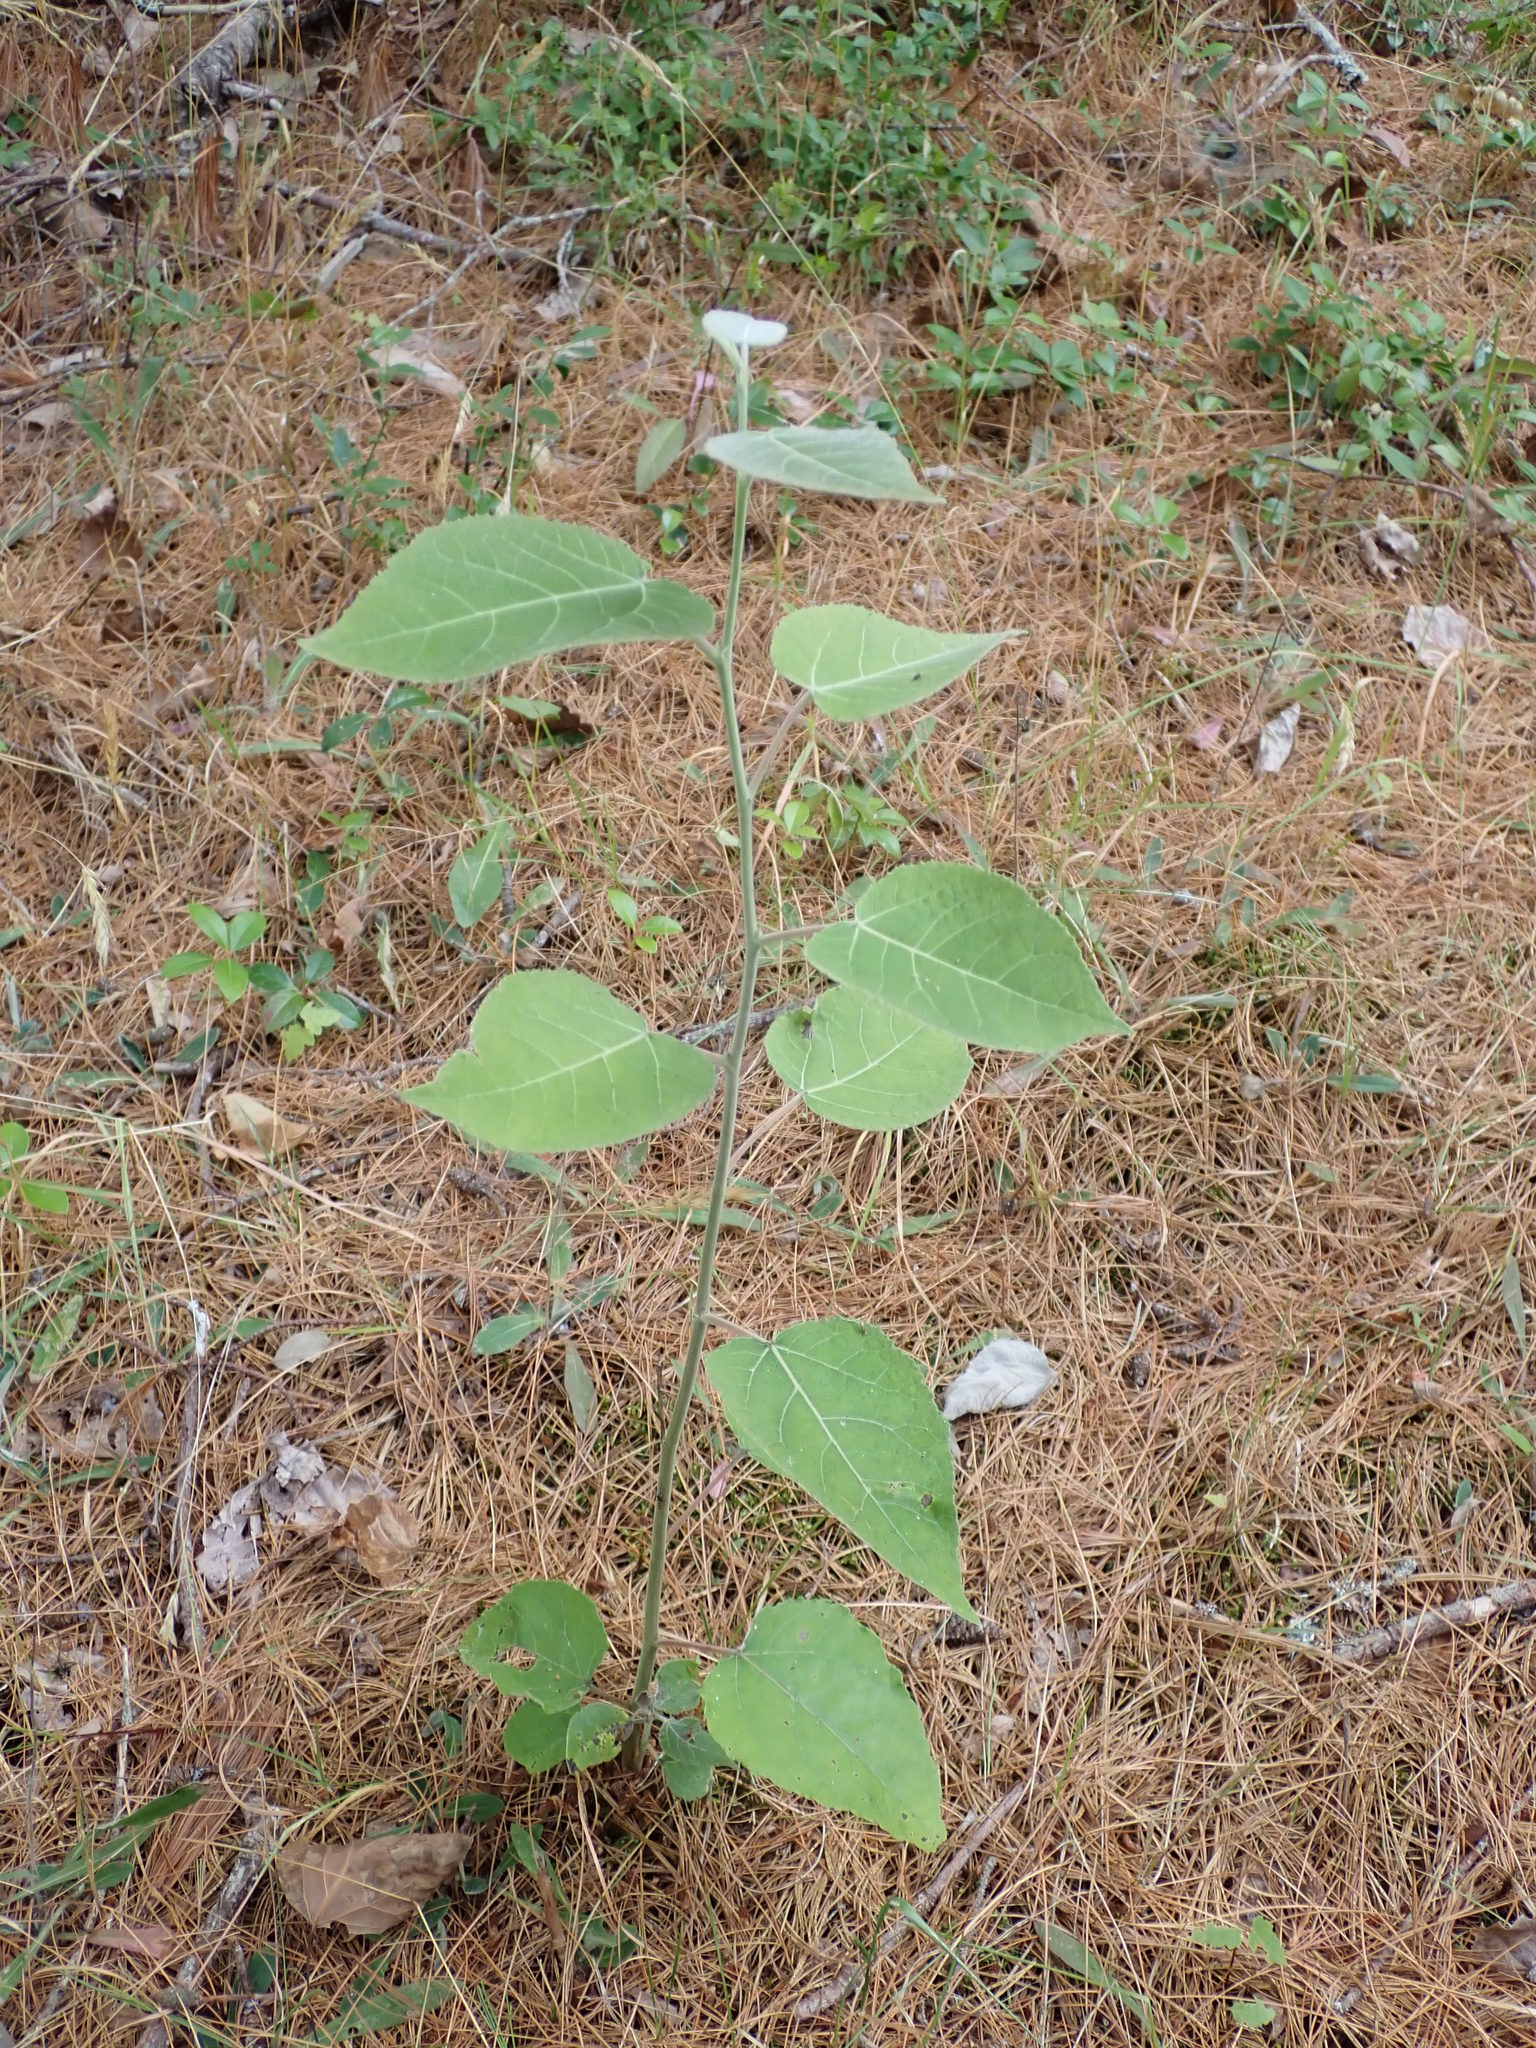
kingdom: Plantae
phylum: Tracheophyta
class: Magnoliopsida
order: Malpighiales
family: Salicaceae
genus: Populus
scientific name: Populus grandidentata
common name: Bigtooth aspen
